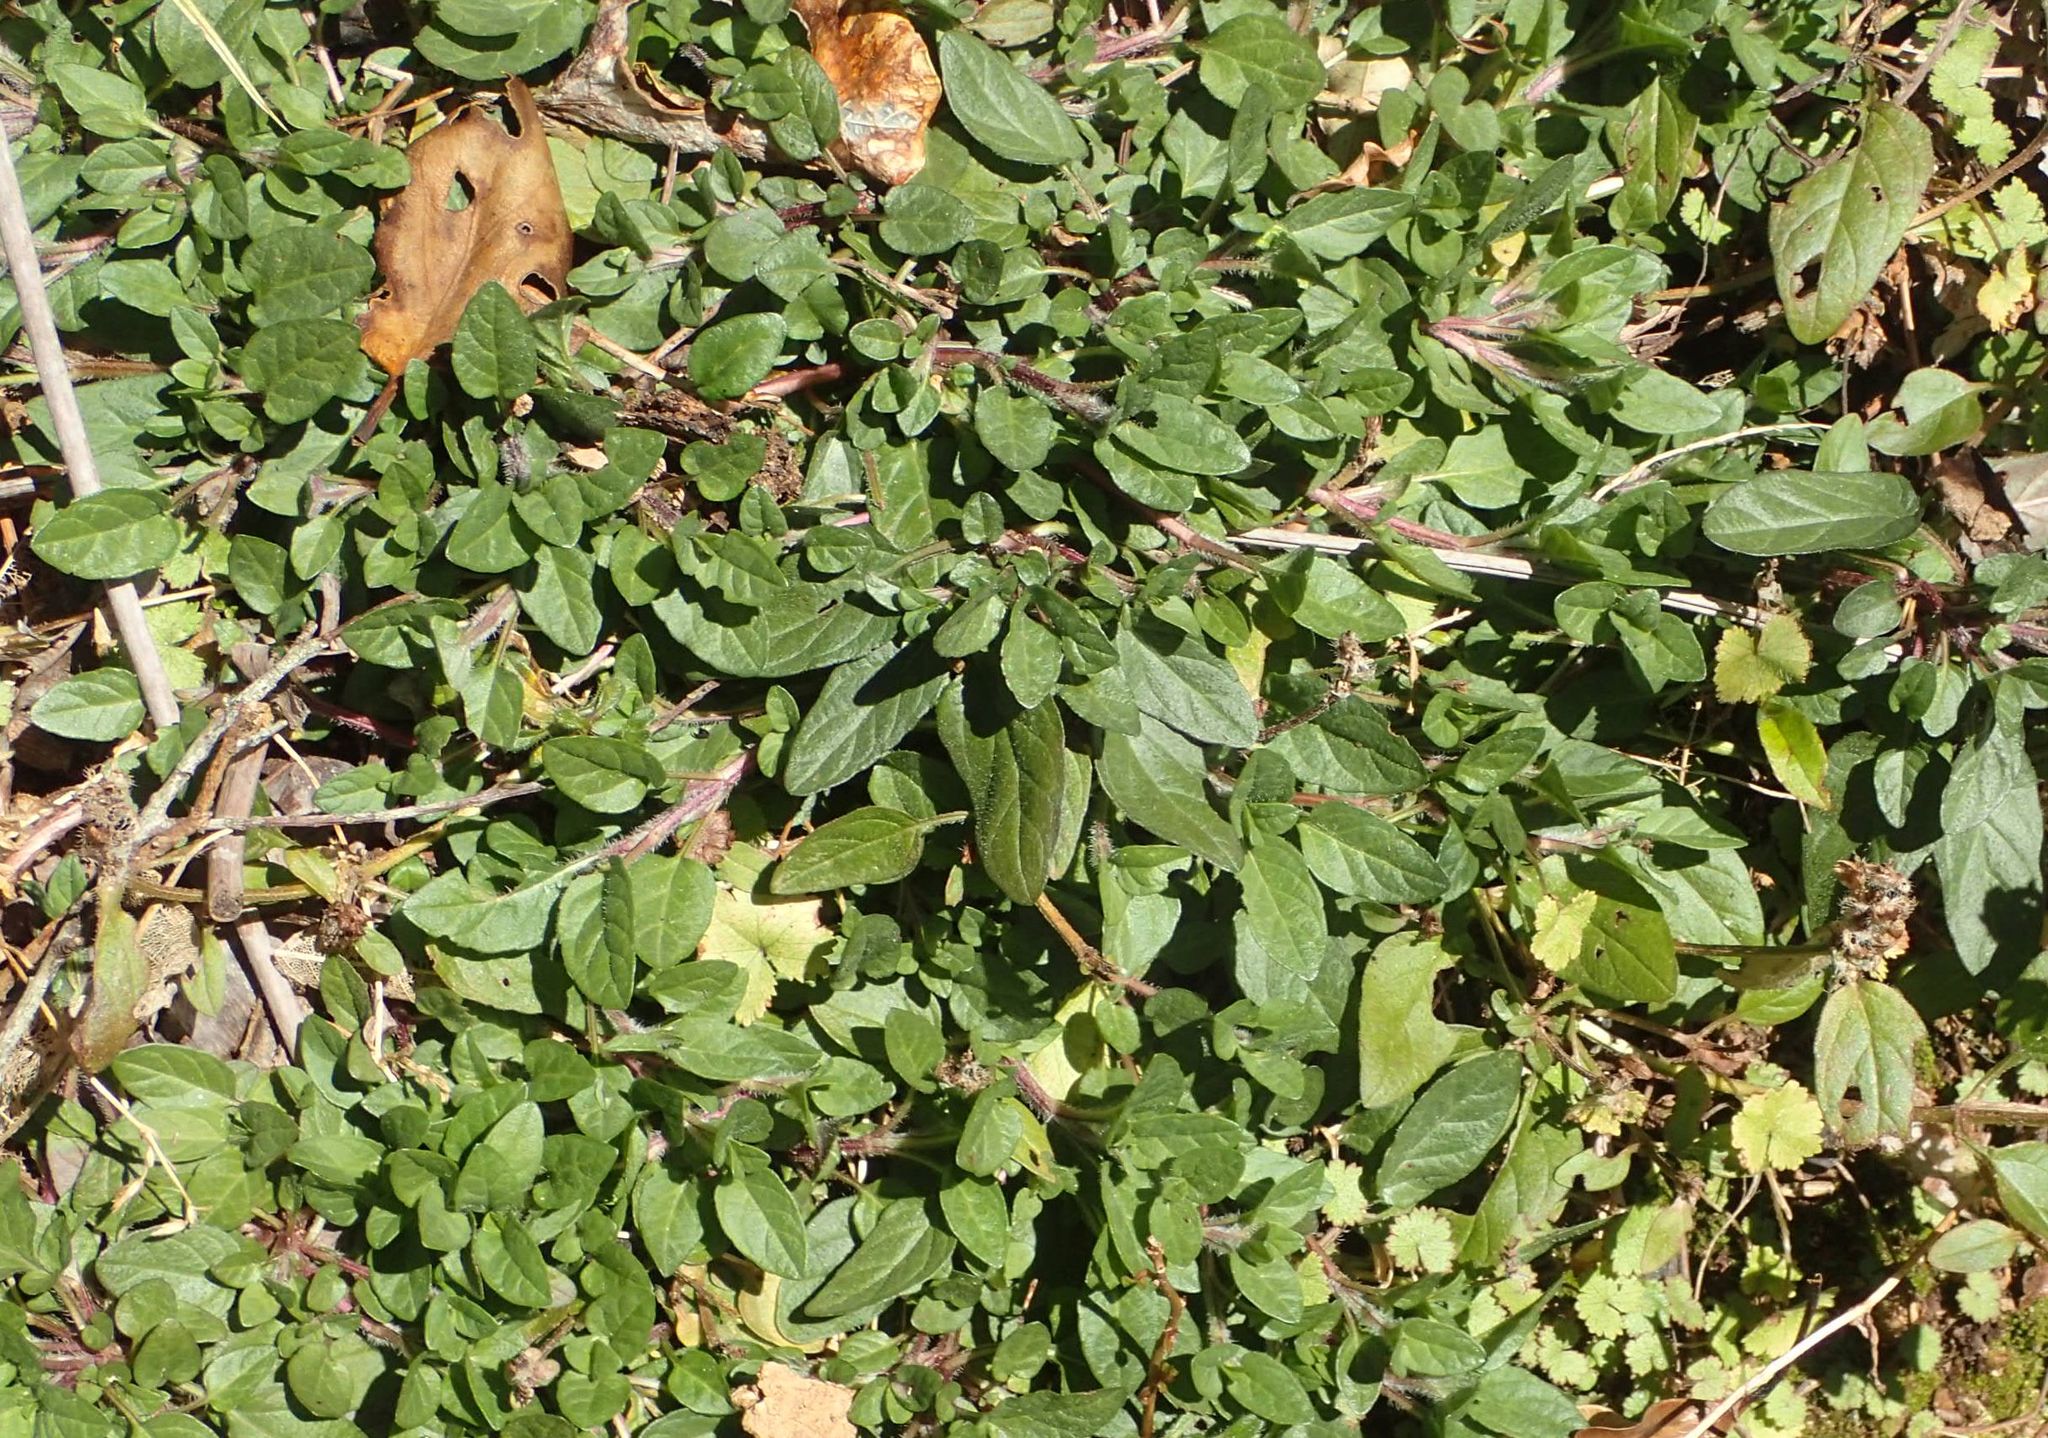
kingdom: Plantae
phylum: Tracheophyta
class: Magnoliopsida
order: Lamiales
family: Lamiaceae
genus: Prunella
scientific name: Prunella vulgaris
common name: Heal-all
